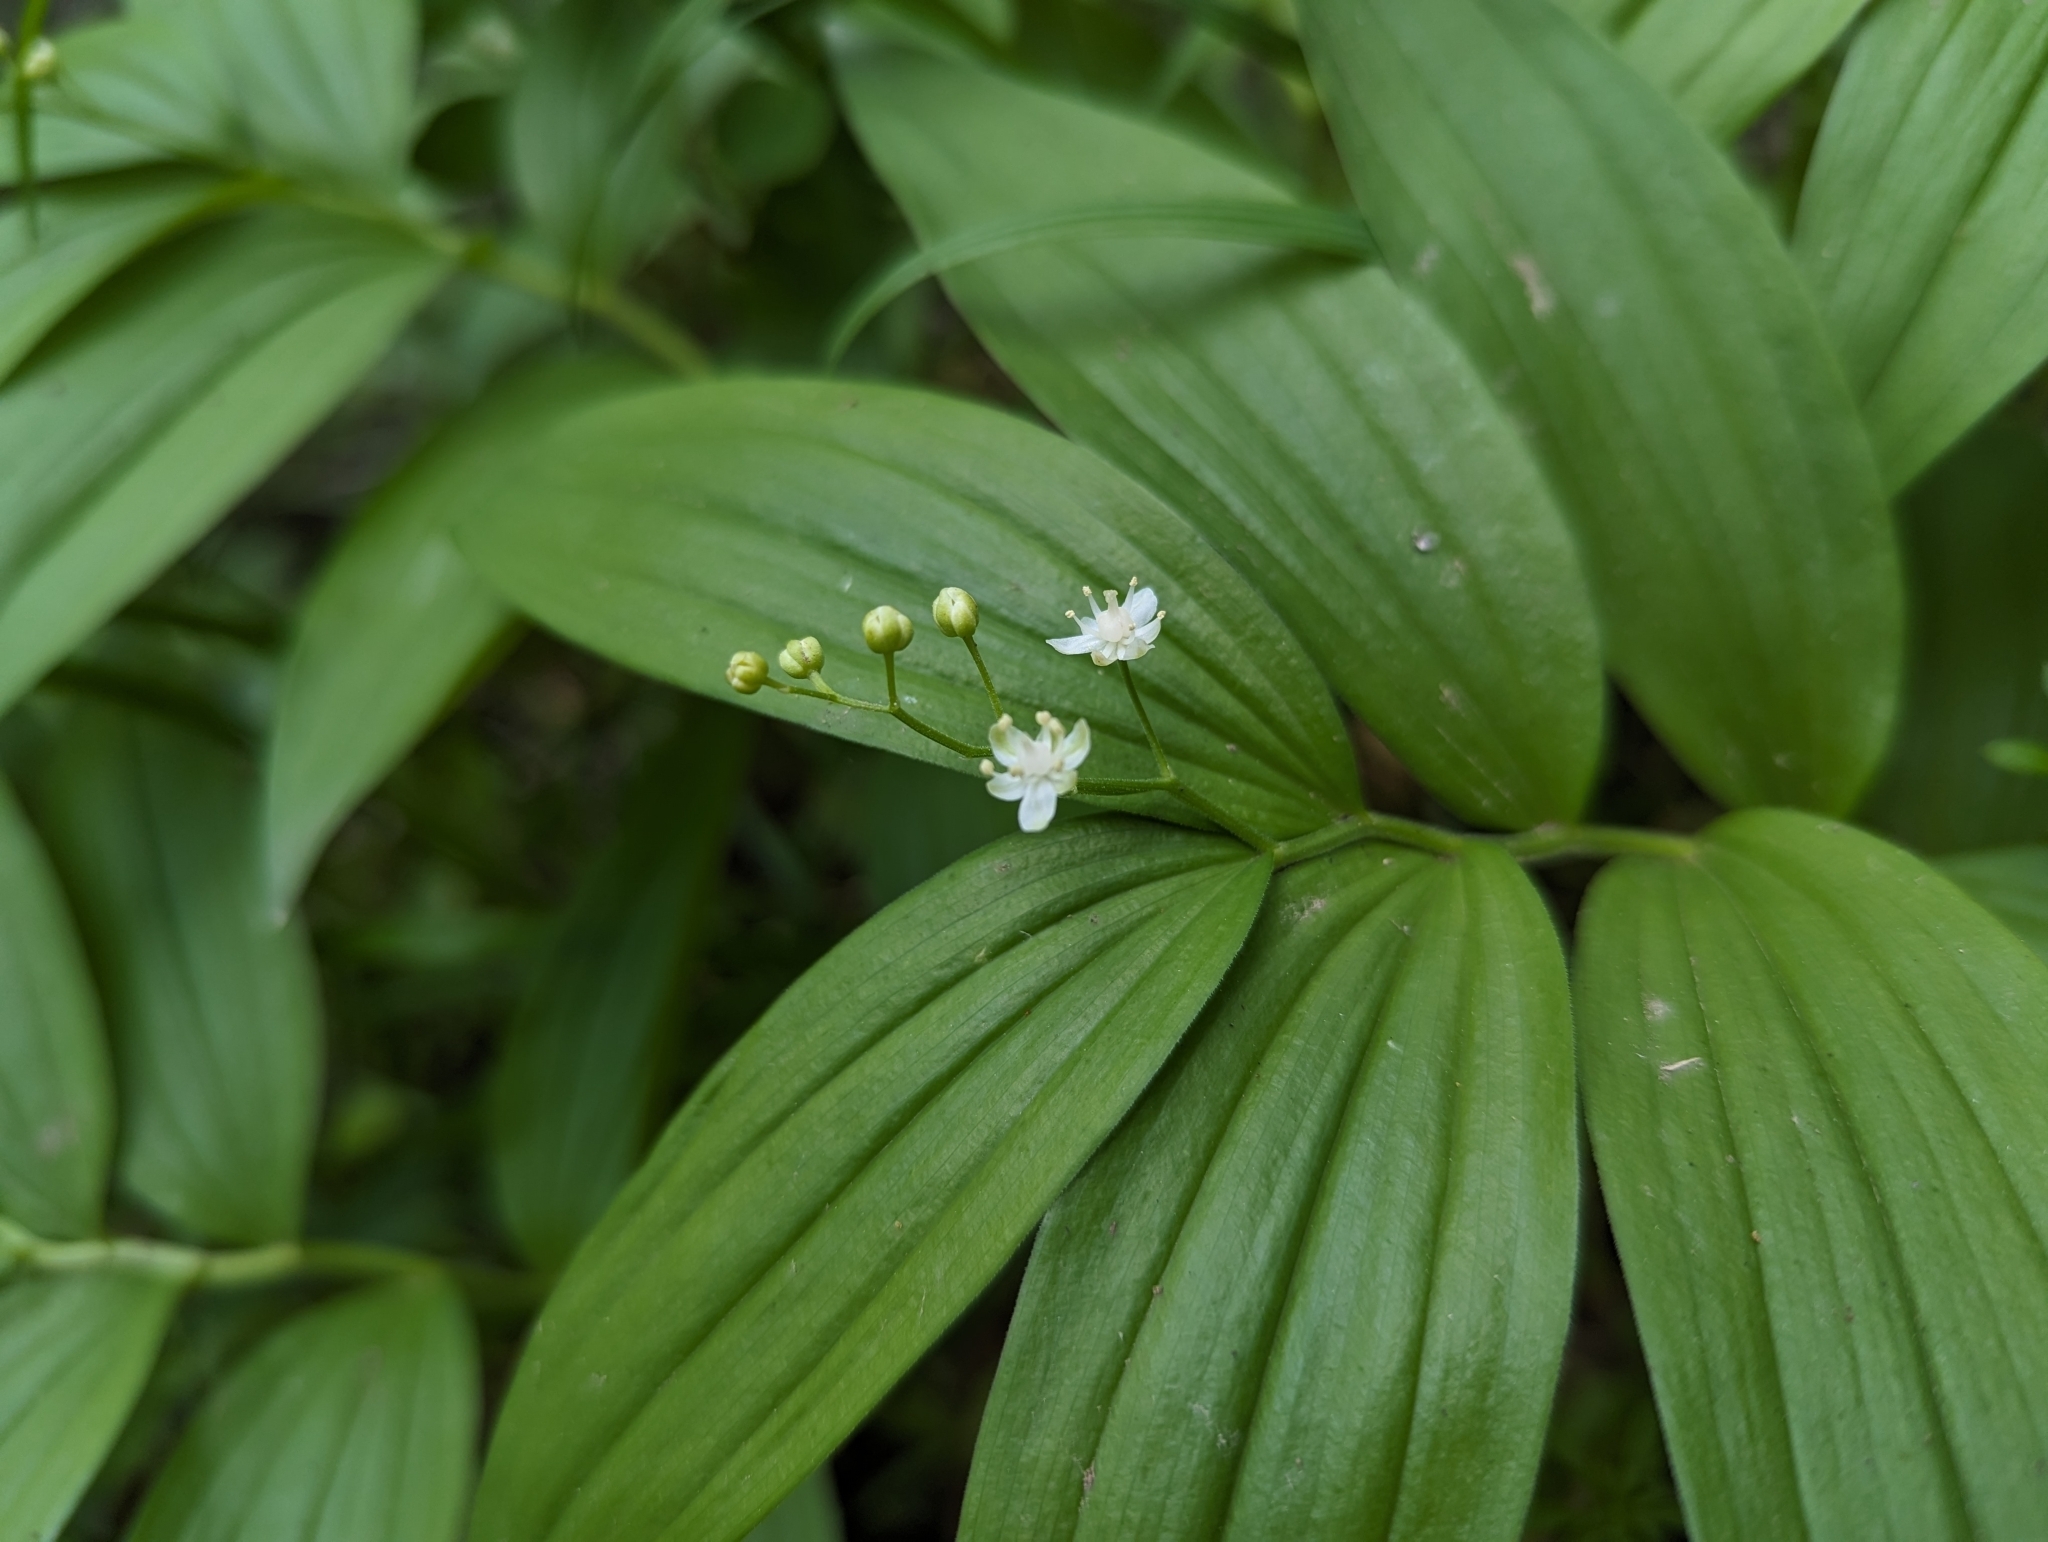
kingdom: Plantae
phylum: Tracheophyta
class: Liliopsida
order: Asparagales
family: Asparagaceae
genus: Maianthemum
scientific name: Maianthemum stellatum
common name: Little false solomon's seal
